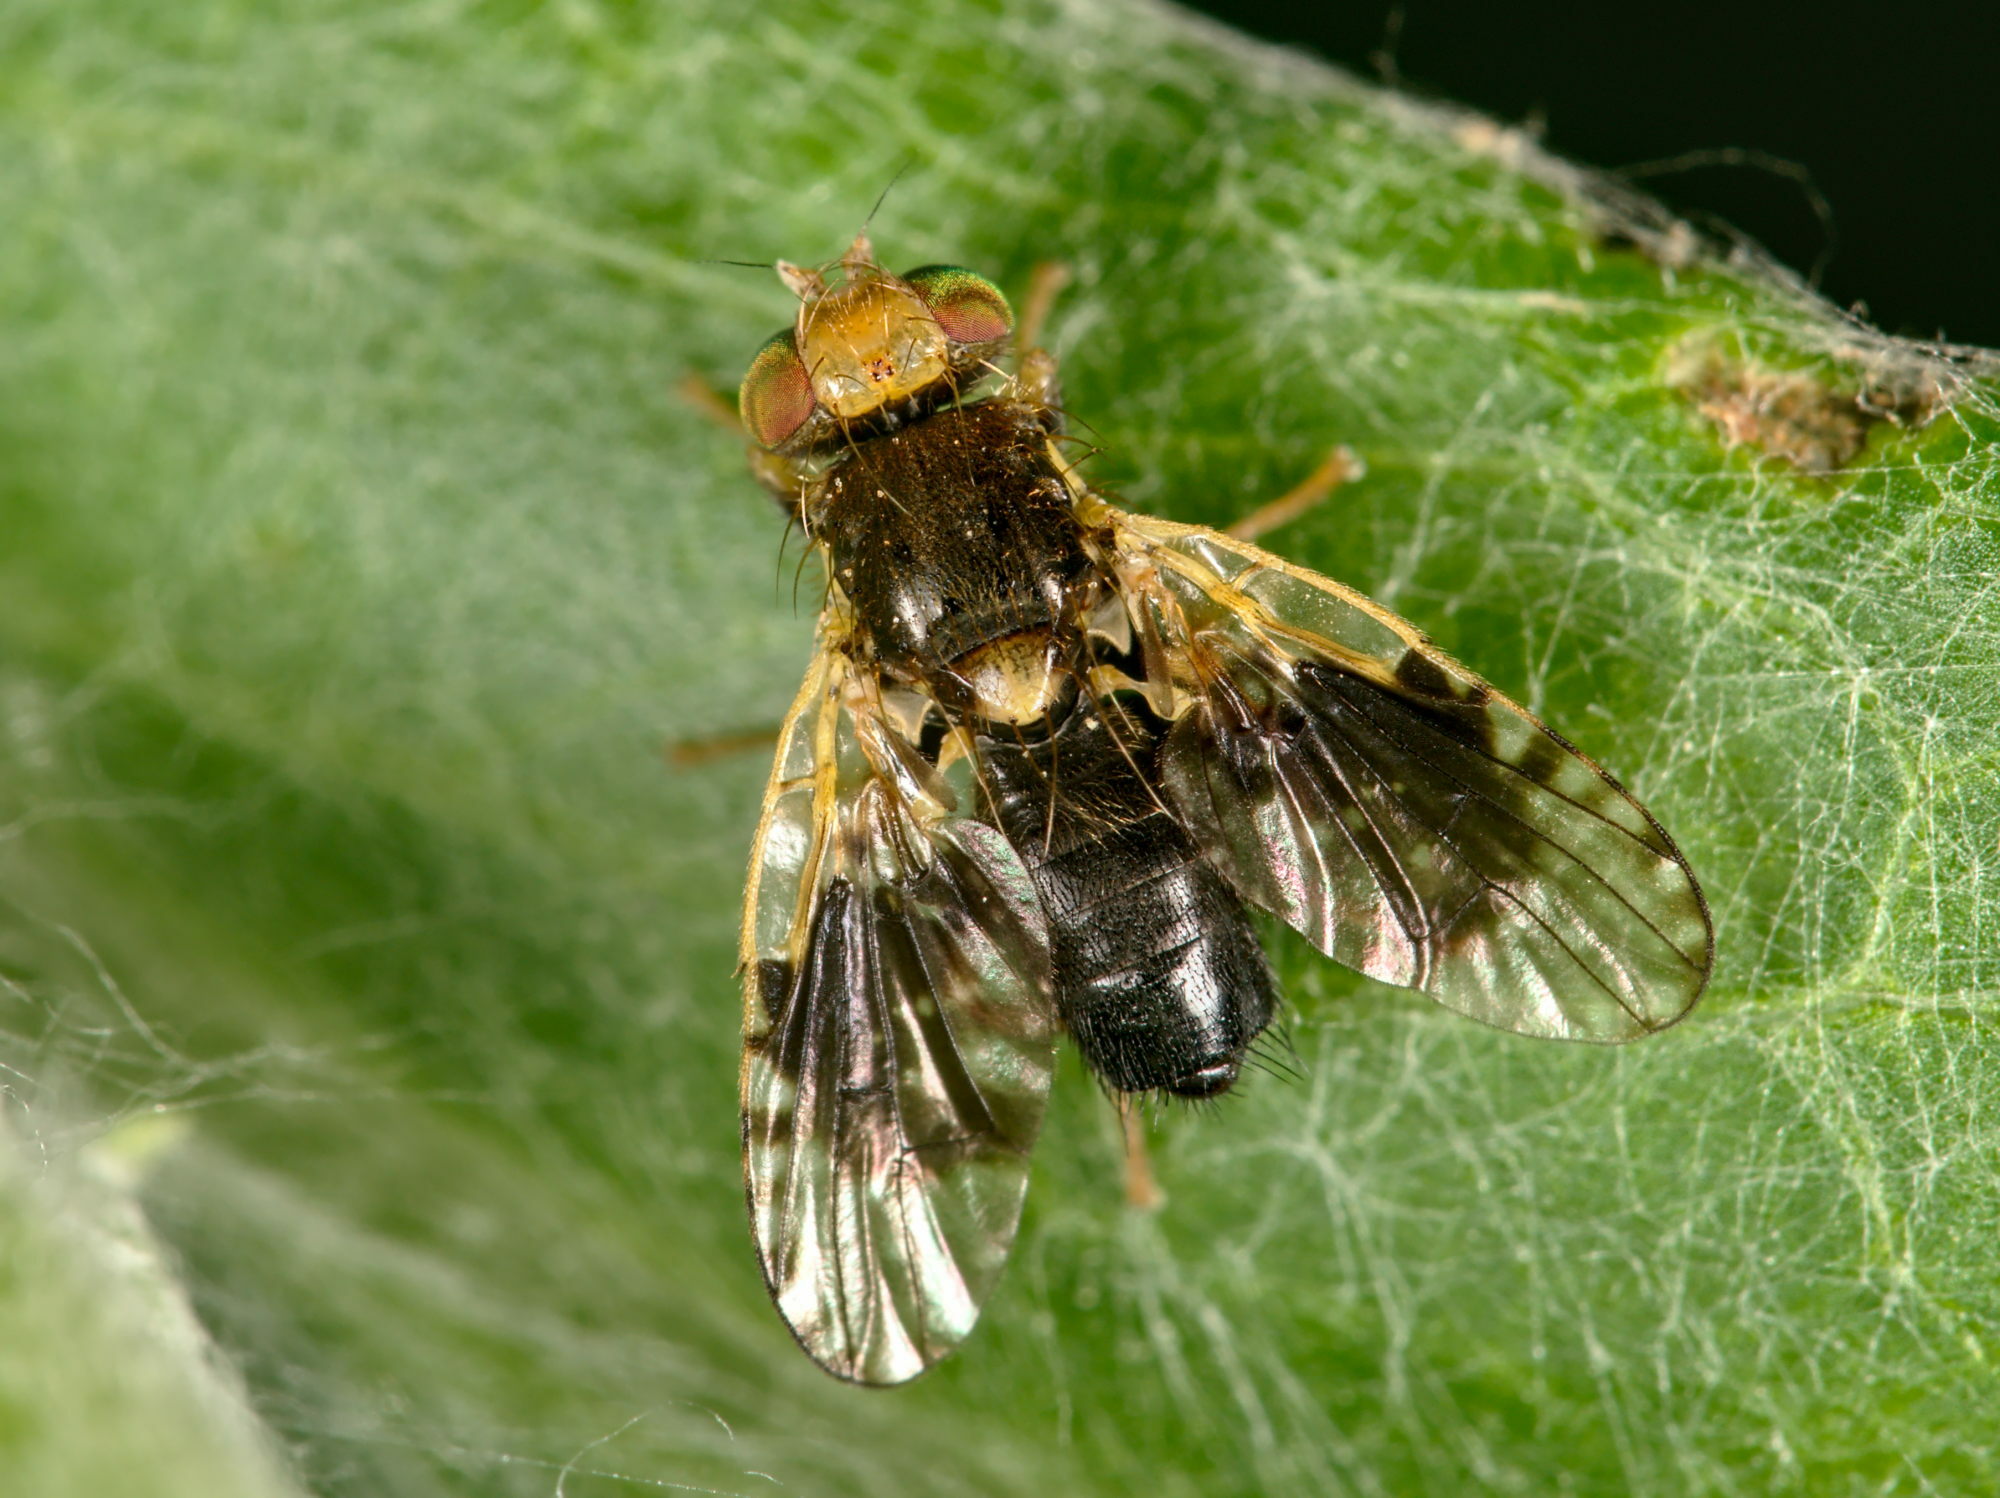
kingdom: Animalia
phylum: Arthropoda
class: Insecta
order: Diptera
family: Tephritidae
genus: Xyphosia
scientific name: Xyphosia laticauda
